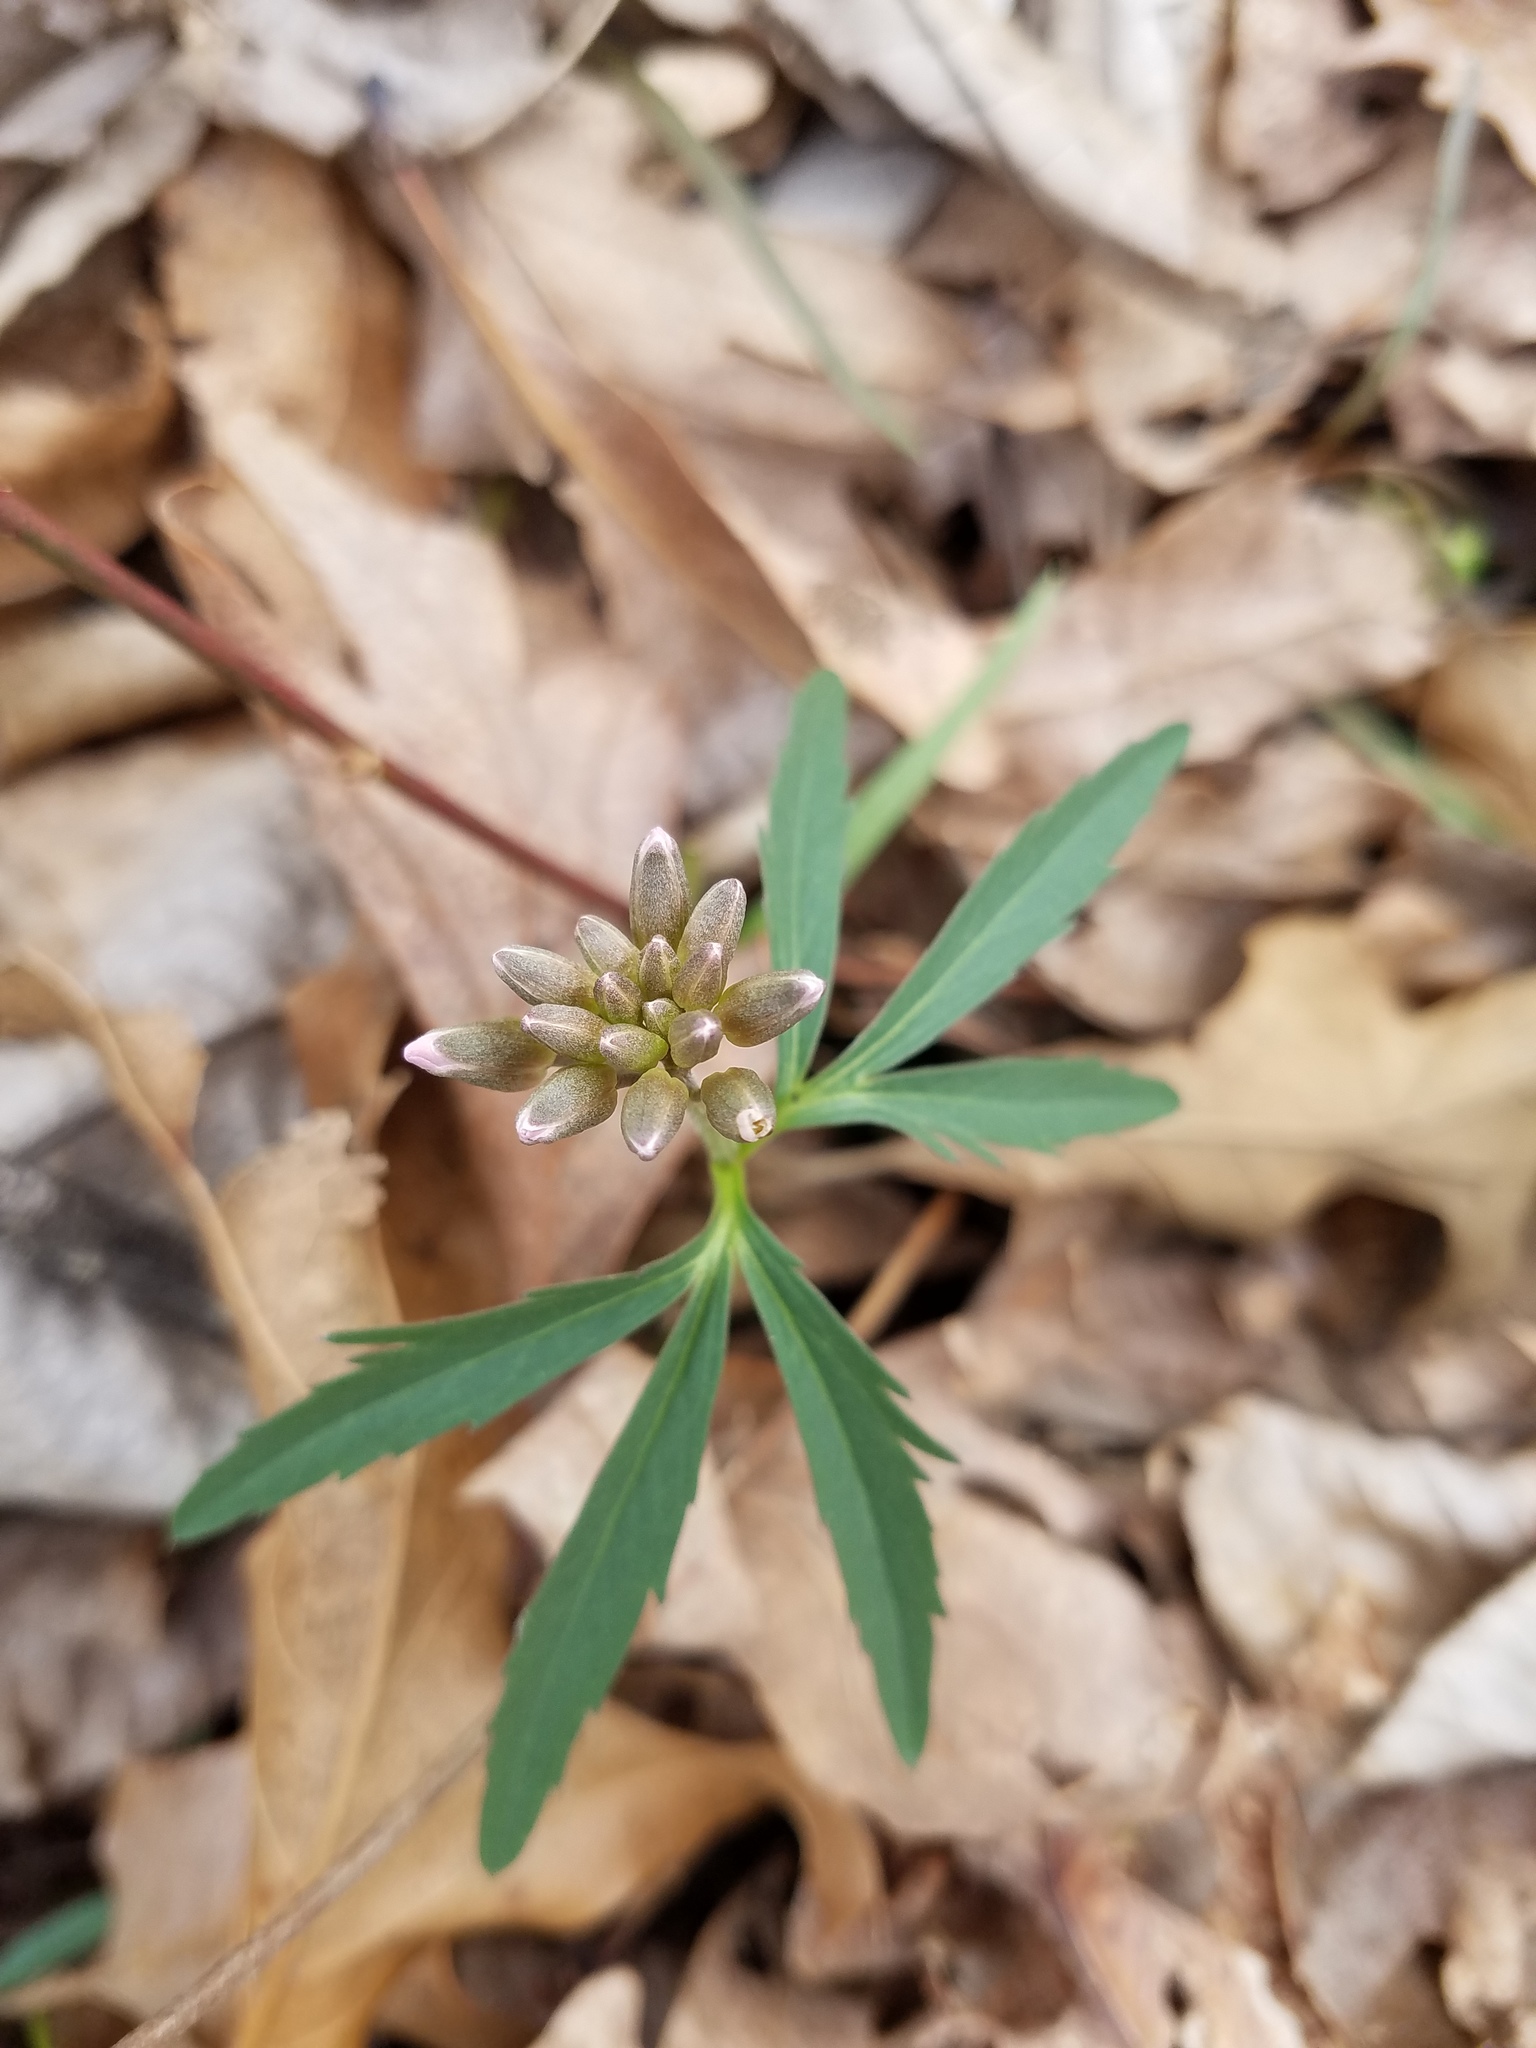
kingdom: Plantae
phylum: Tracheophyta
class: Magnoliopsida
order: Brassicales
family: Brassicaceae
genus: Cardamine
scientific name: Cardamine concatenata
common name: Cut-leaf toothcup
